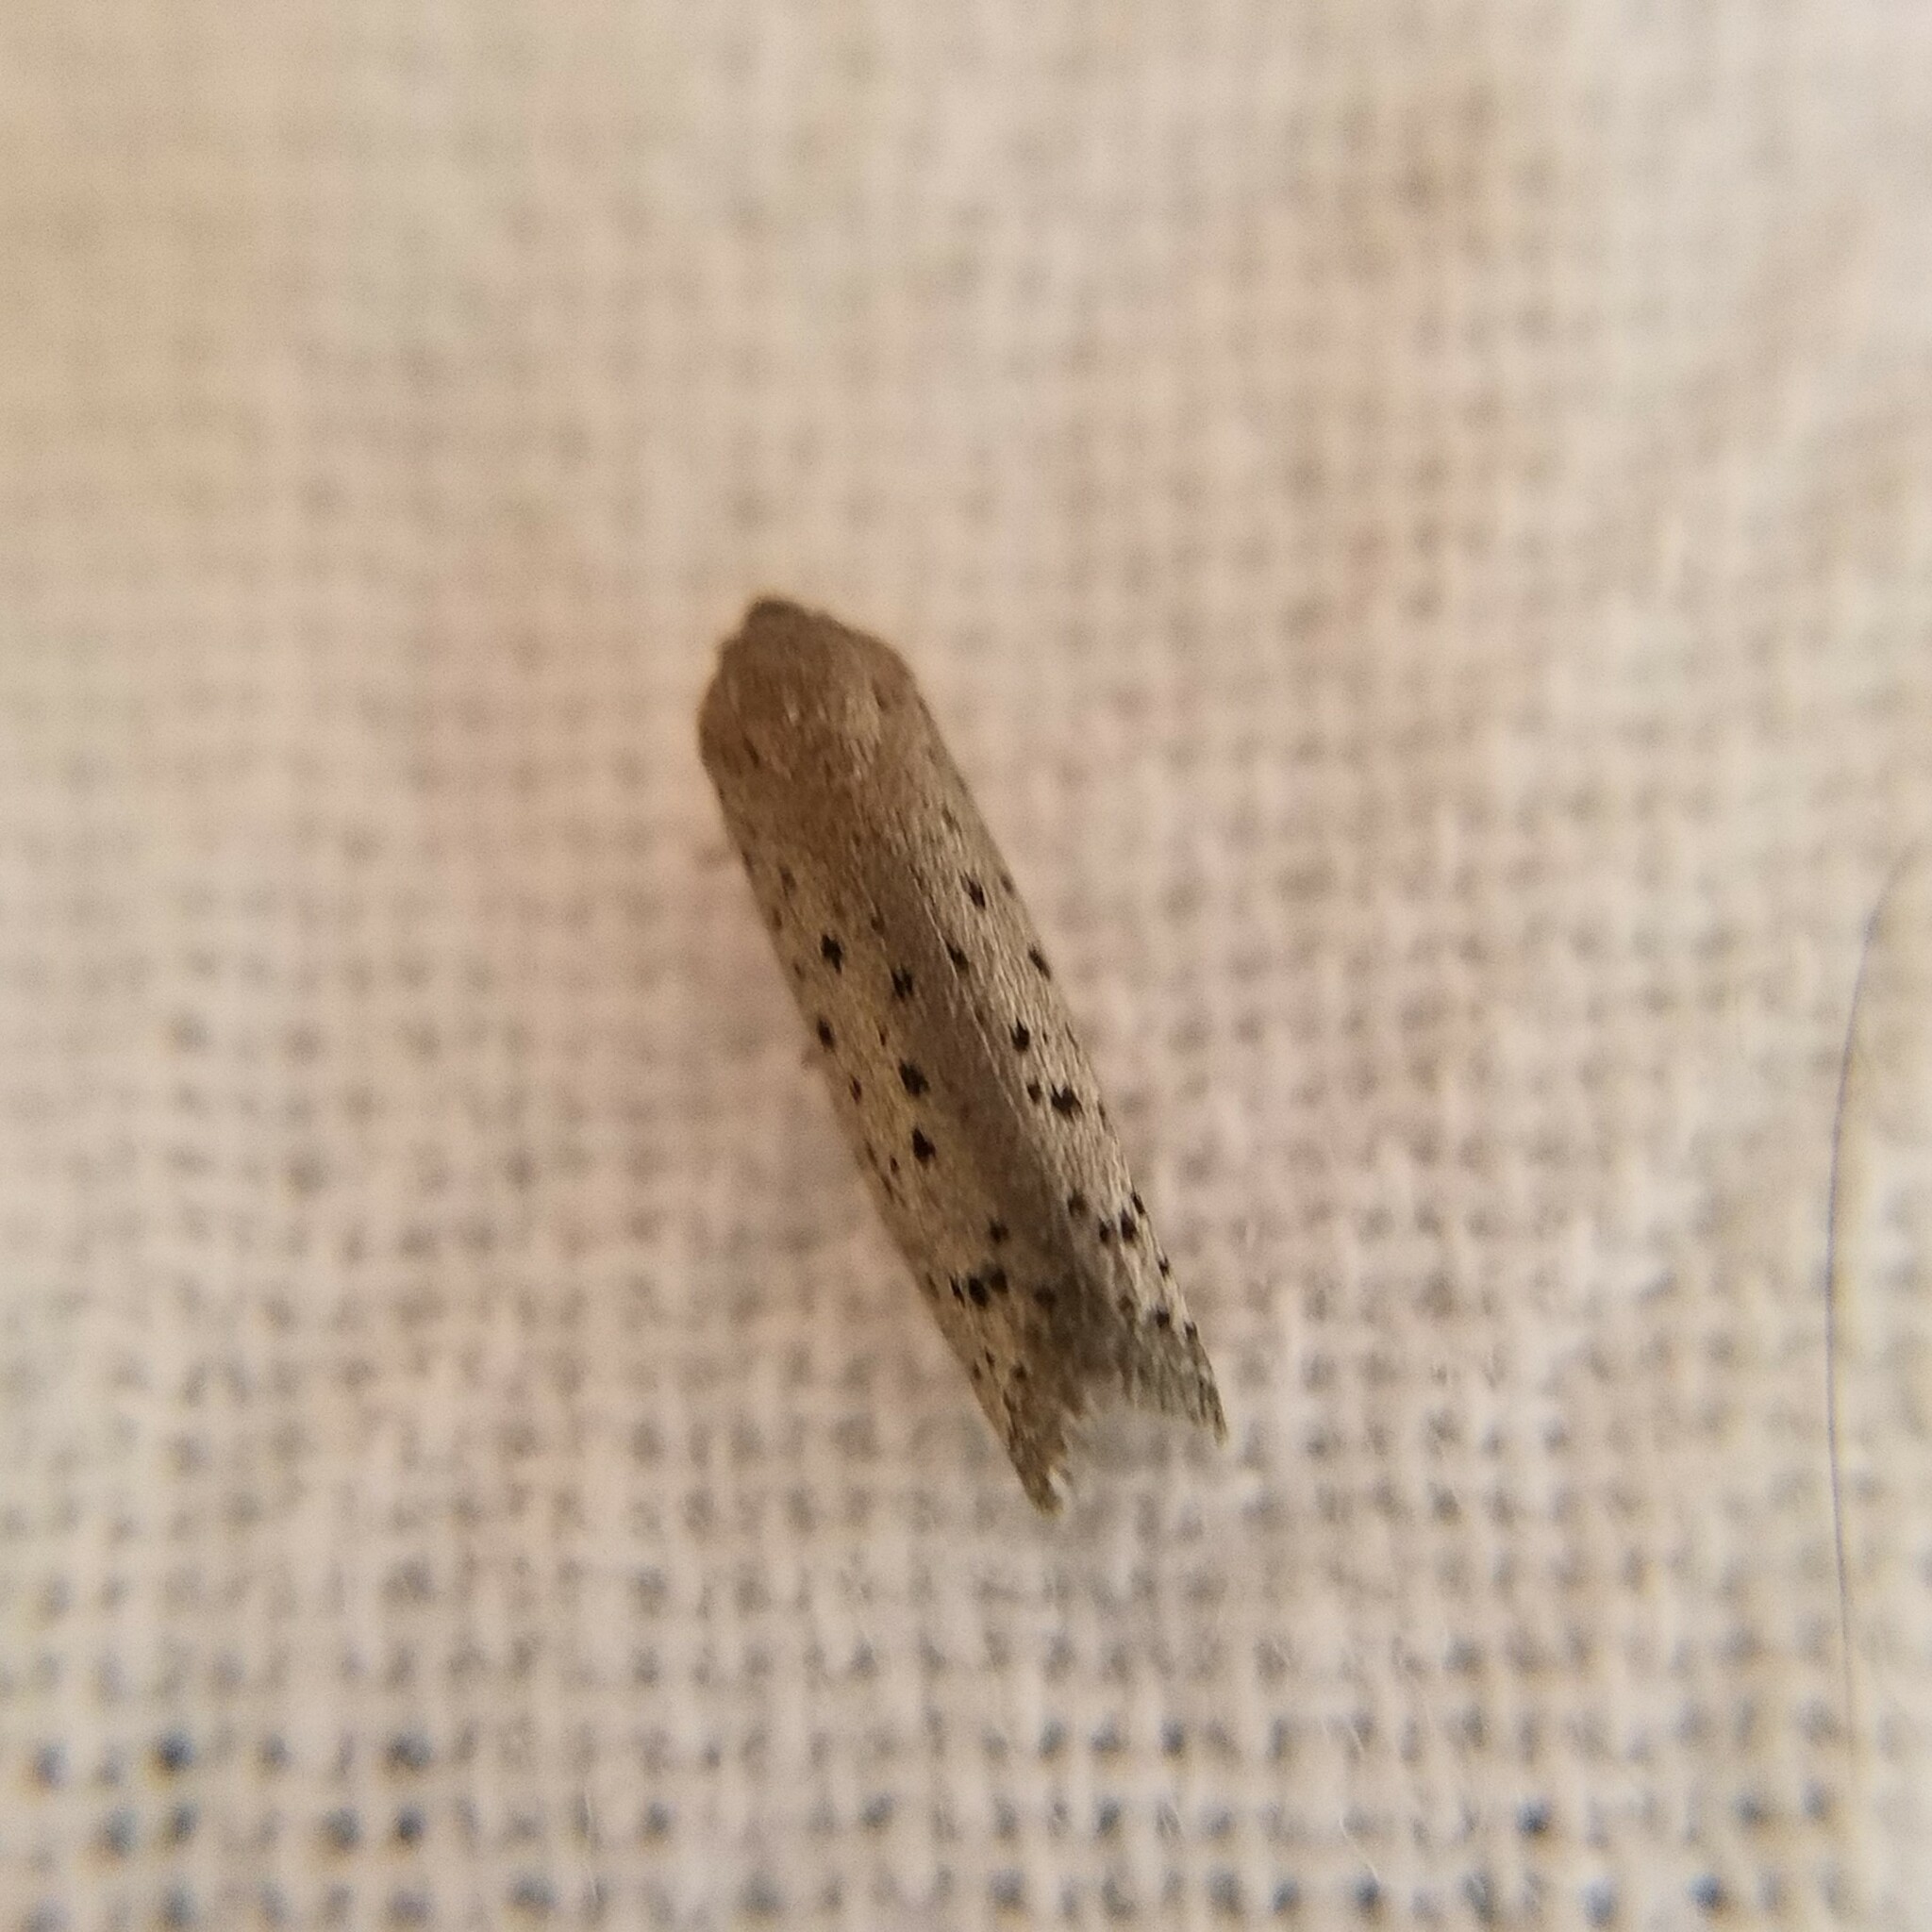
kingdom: Animalia
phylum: Arthropoda
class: Insecta
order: Lepidoptera
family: Galacticidae
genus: Homadaula
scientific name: Homadaula anisocentra
